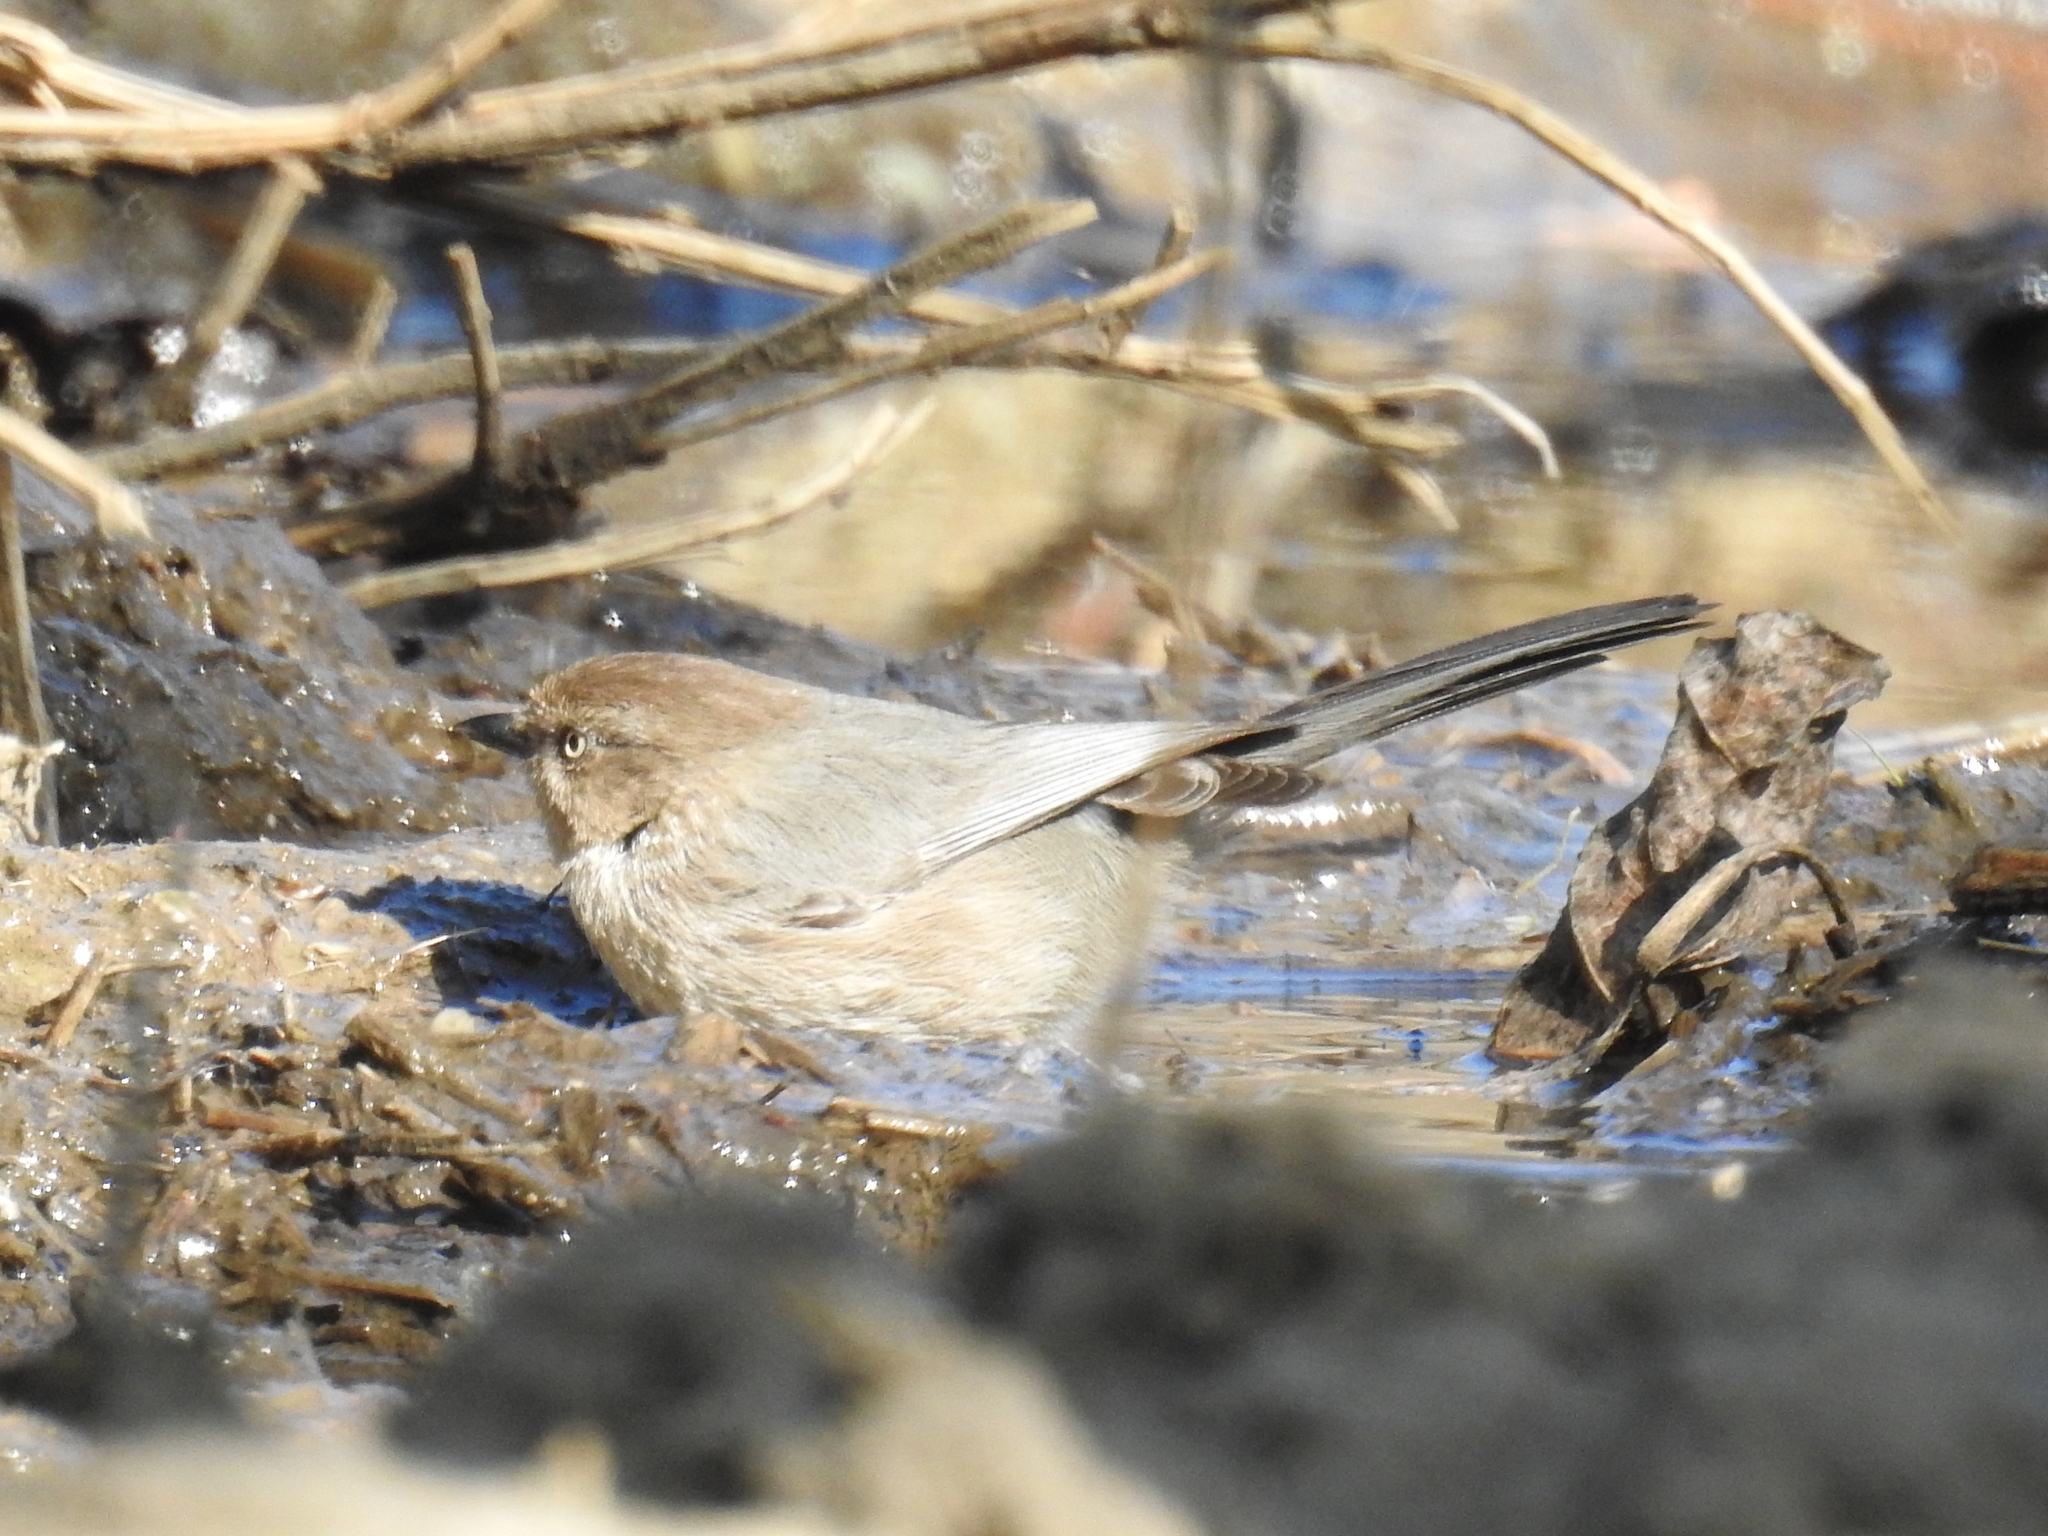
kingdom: Animalia
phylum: Chordata
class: Aves
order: Passeriformes
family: Aegithalidae
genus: Psaltriparus
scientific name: Psaltriparus minimus
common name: American bushtit
